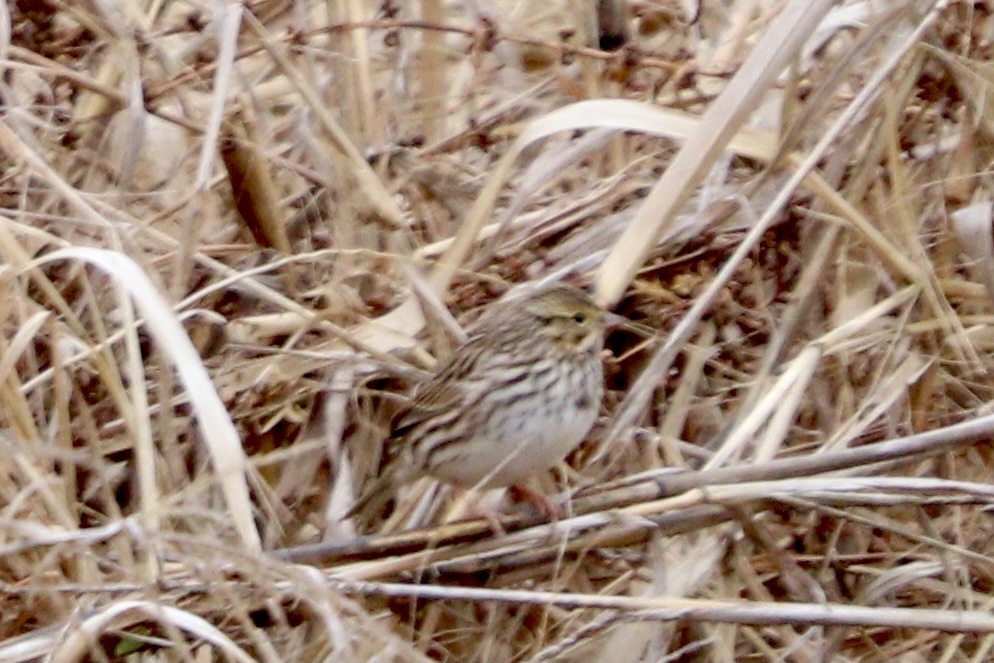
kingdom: Animalia
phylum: Chordata
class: Aves
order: Passeriformes
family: Passerellidae
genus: Passerculus
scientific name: Passerculus sandwichensis
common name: Savannah sparrow
